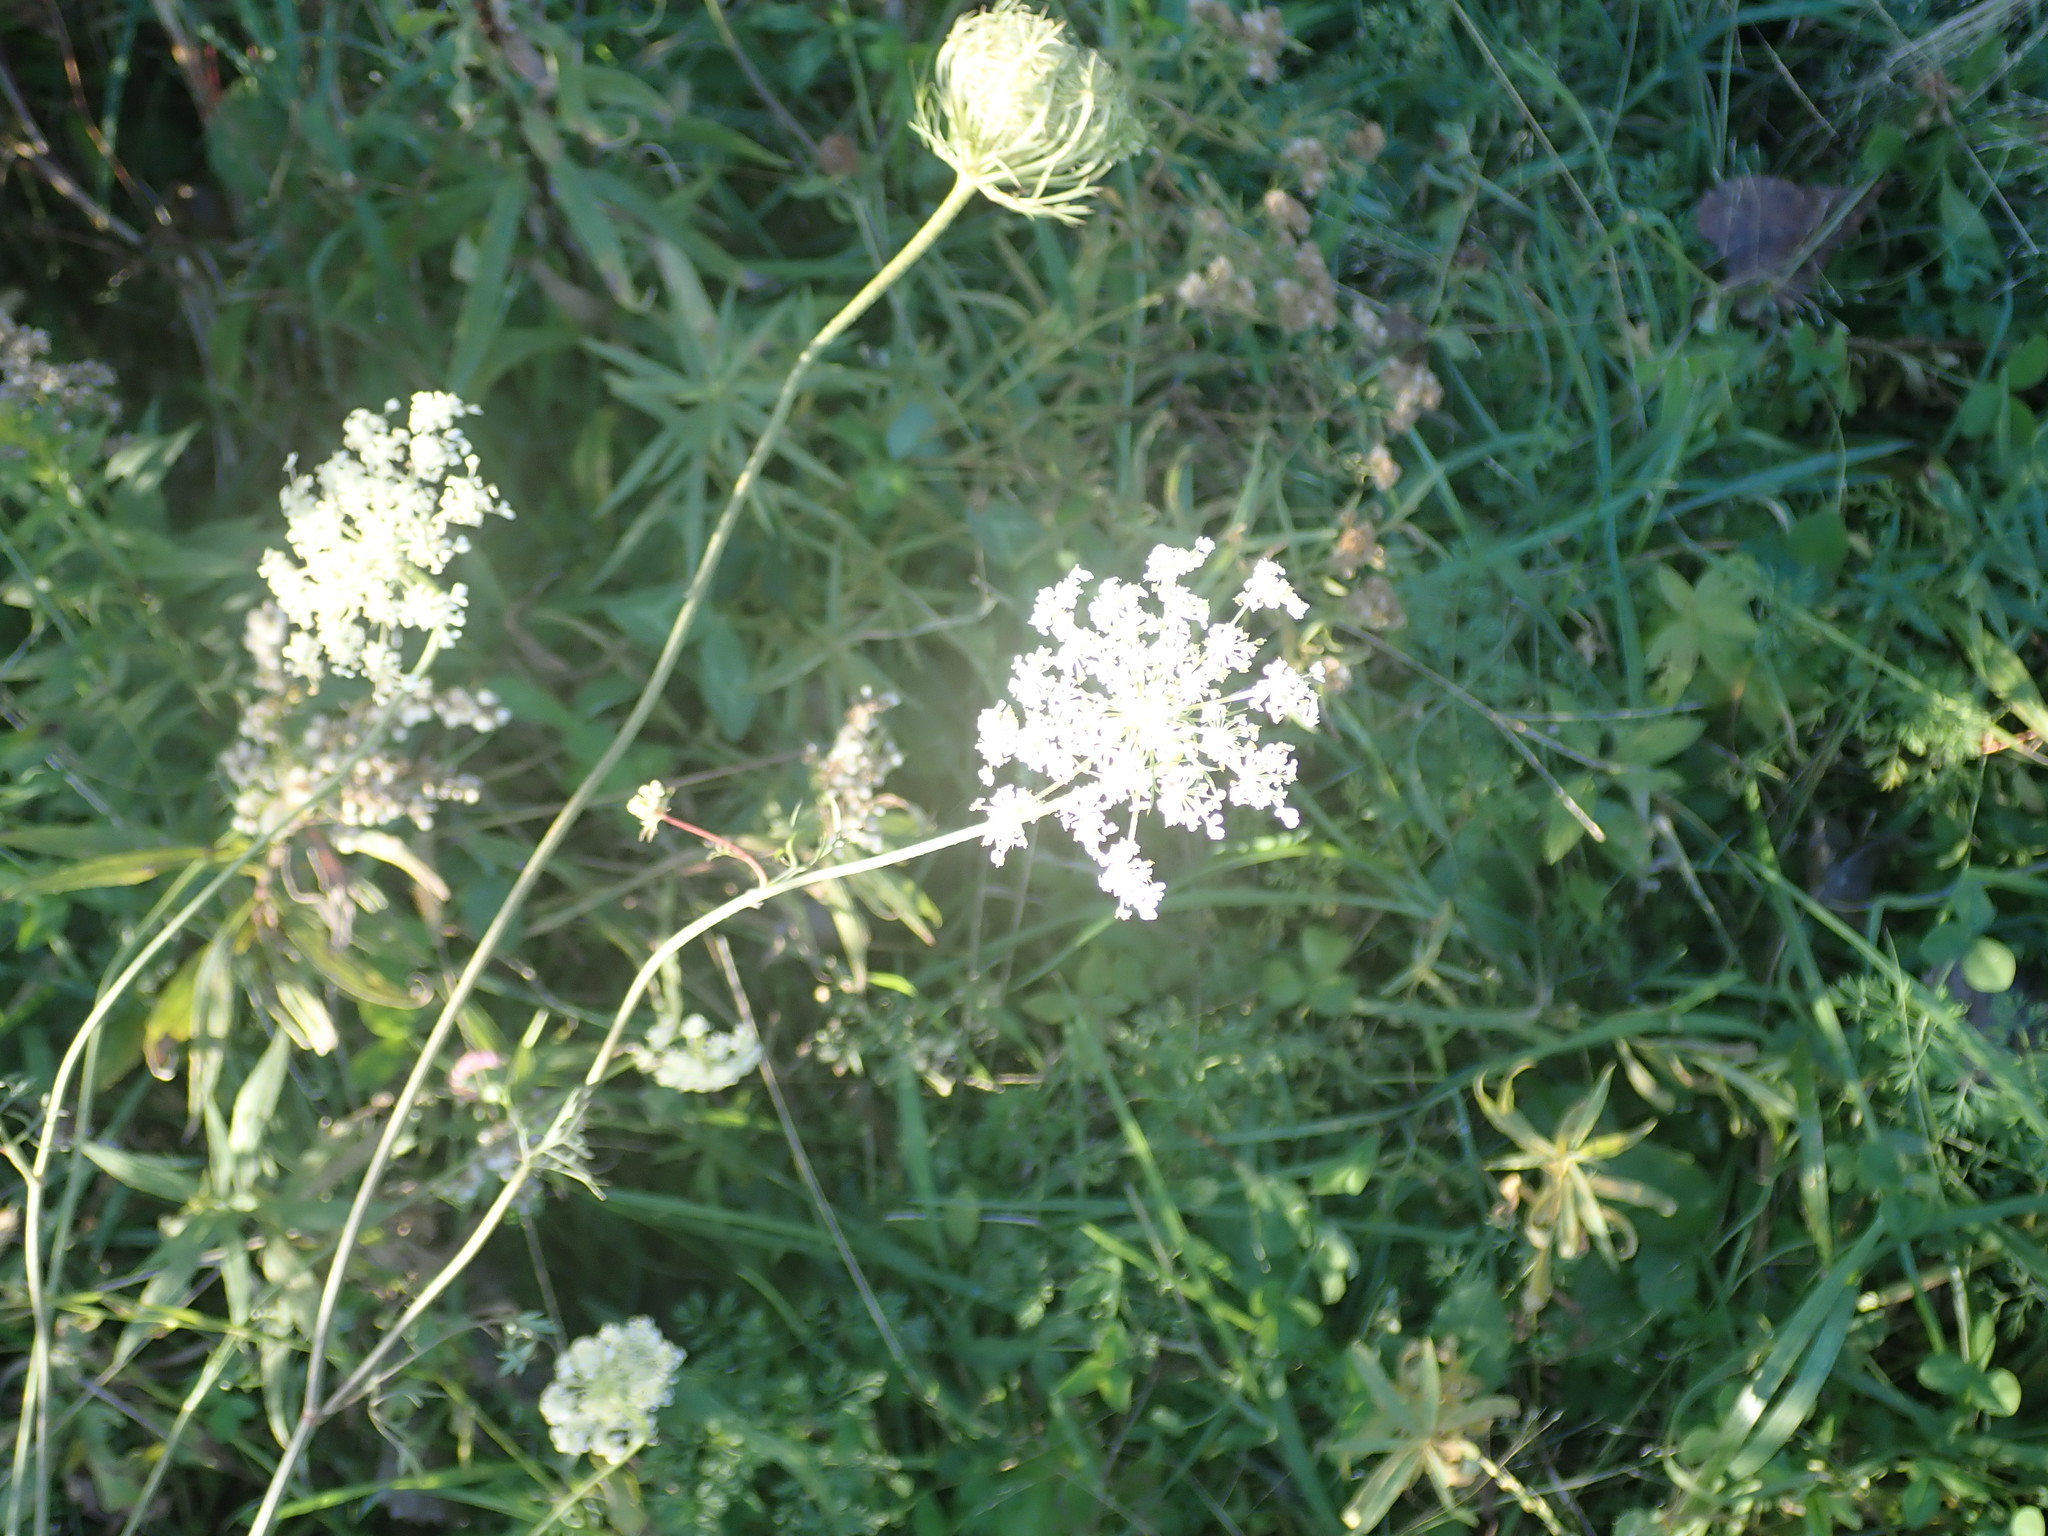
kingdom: Plantae
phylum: Tracheophyta
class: Magnoliopsida
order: Apiales
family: Apiaceae
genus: Daucus
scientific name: Daucus carota
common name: Wild carrot
